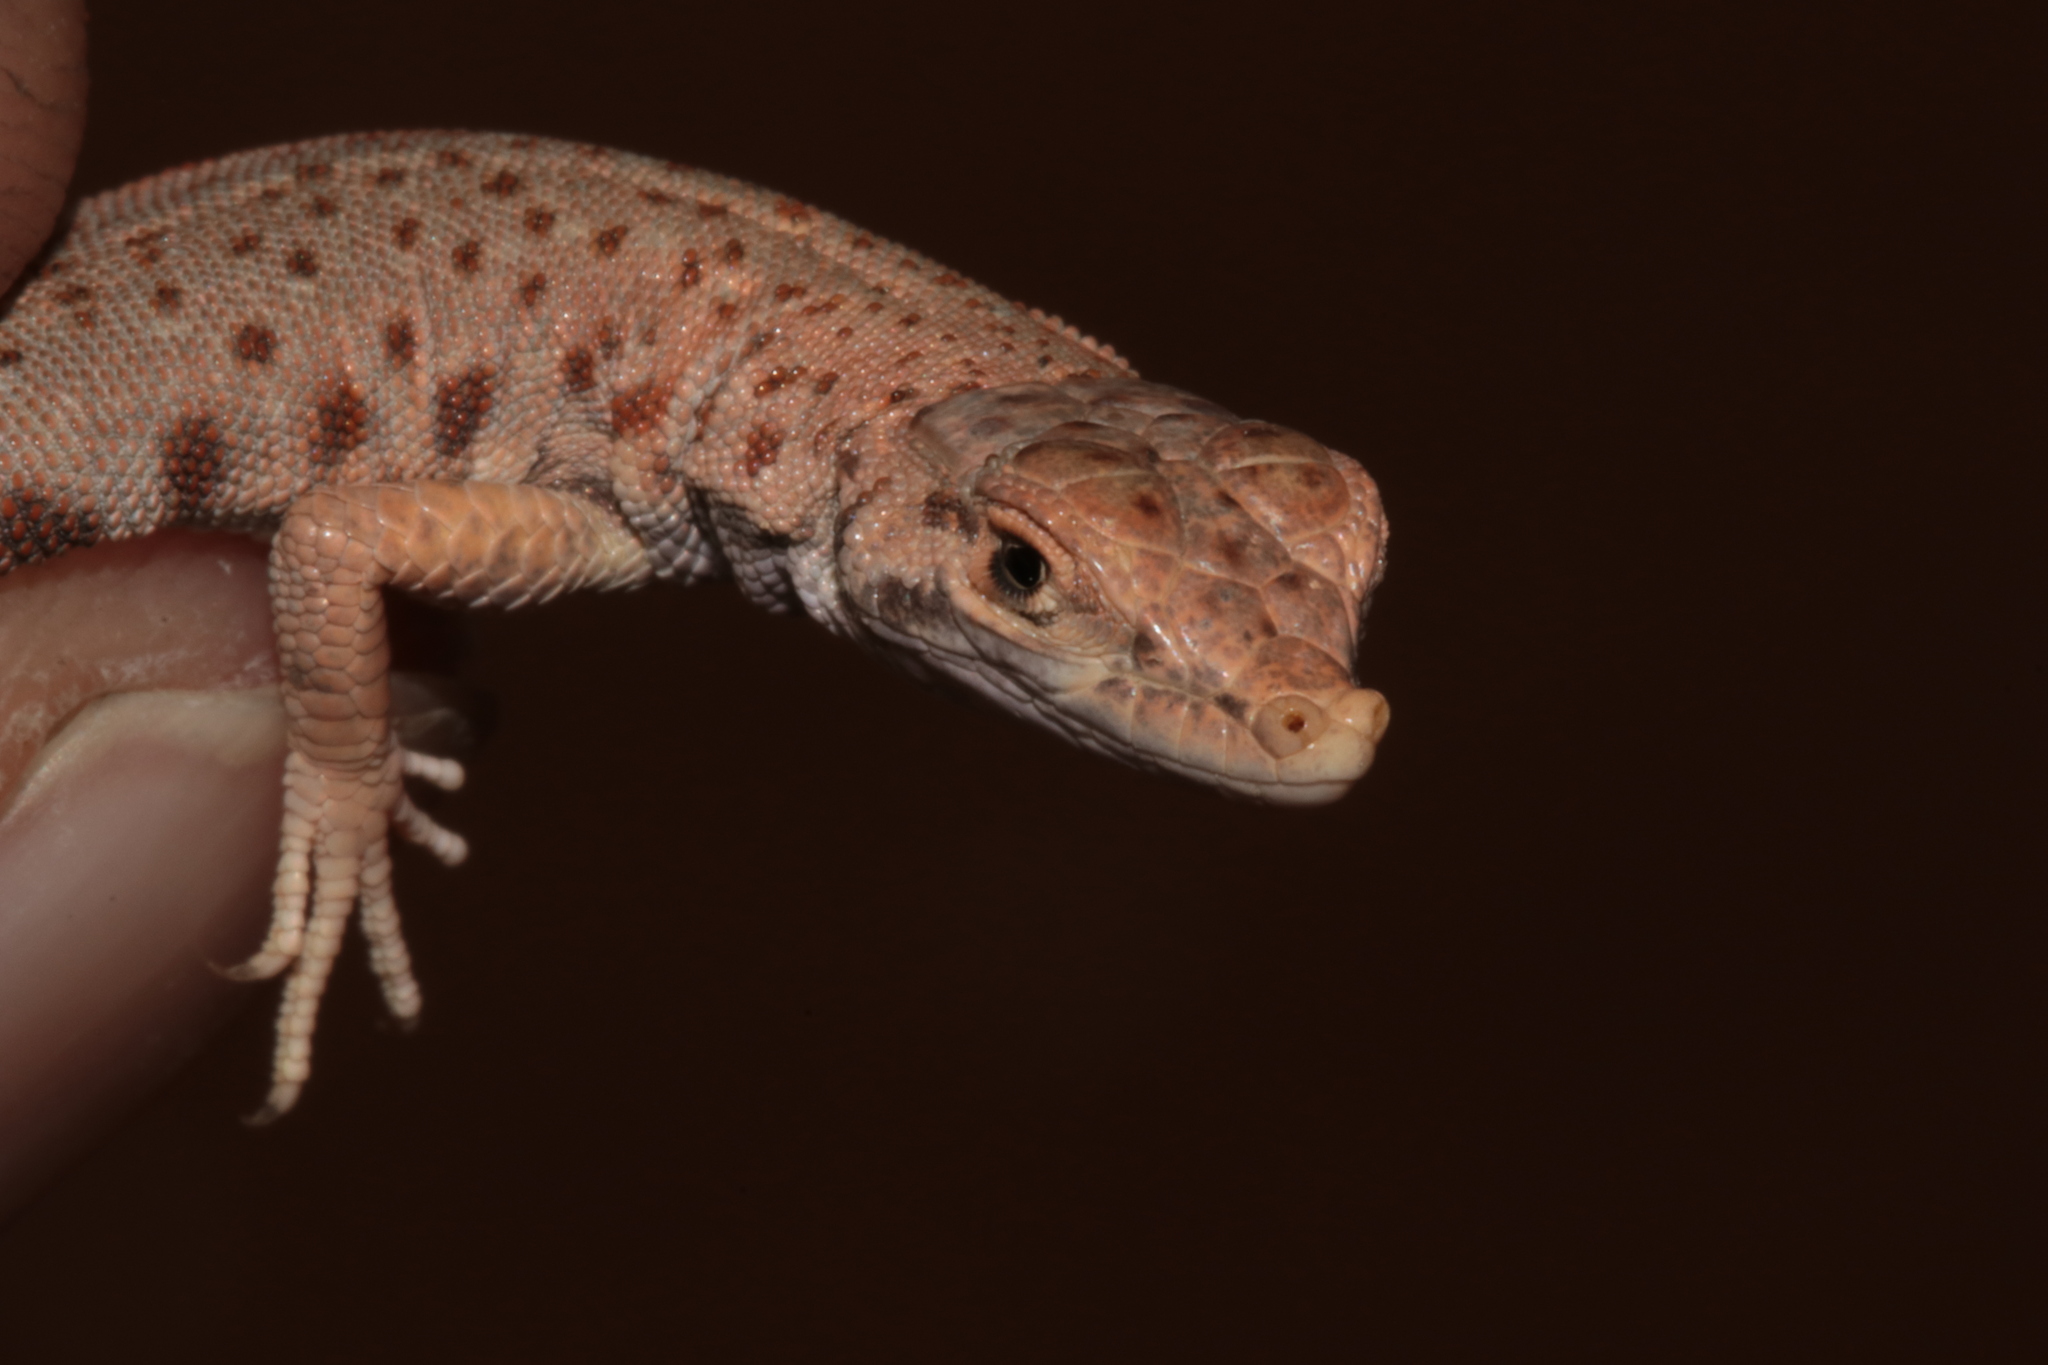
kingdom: Animalia
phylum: Chordata
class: Squamata
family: Lacertidae
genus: Mesalina
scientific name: Mesalina brevirostris
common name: Blanford's short-nosed desert lizard
